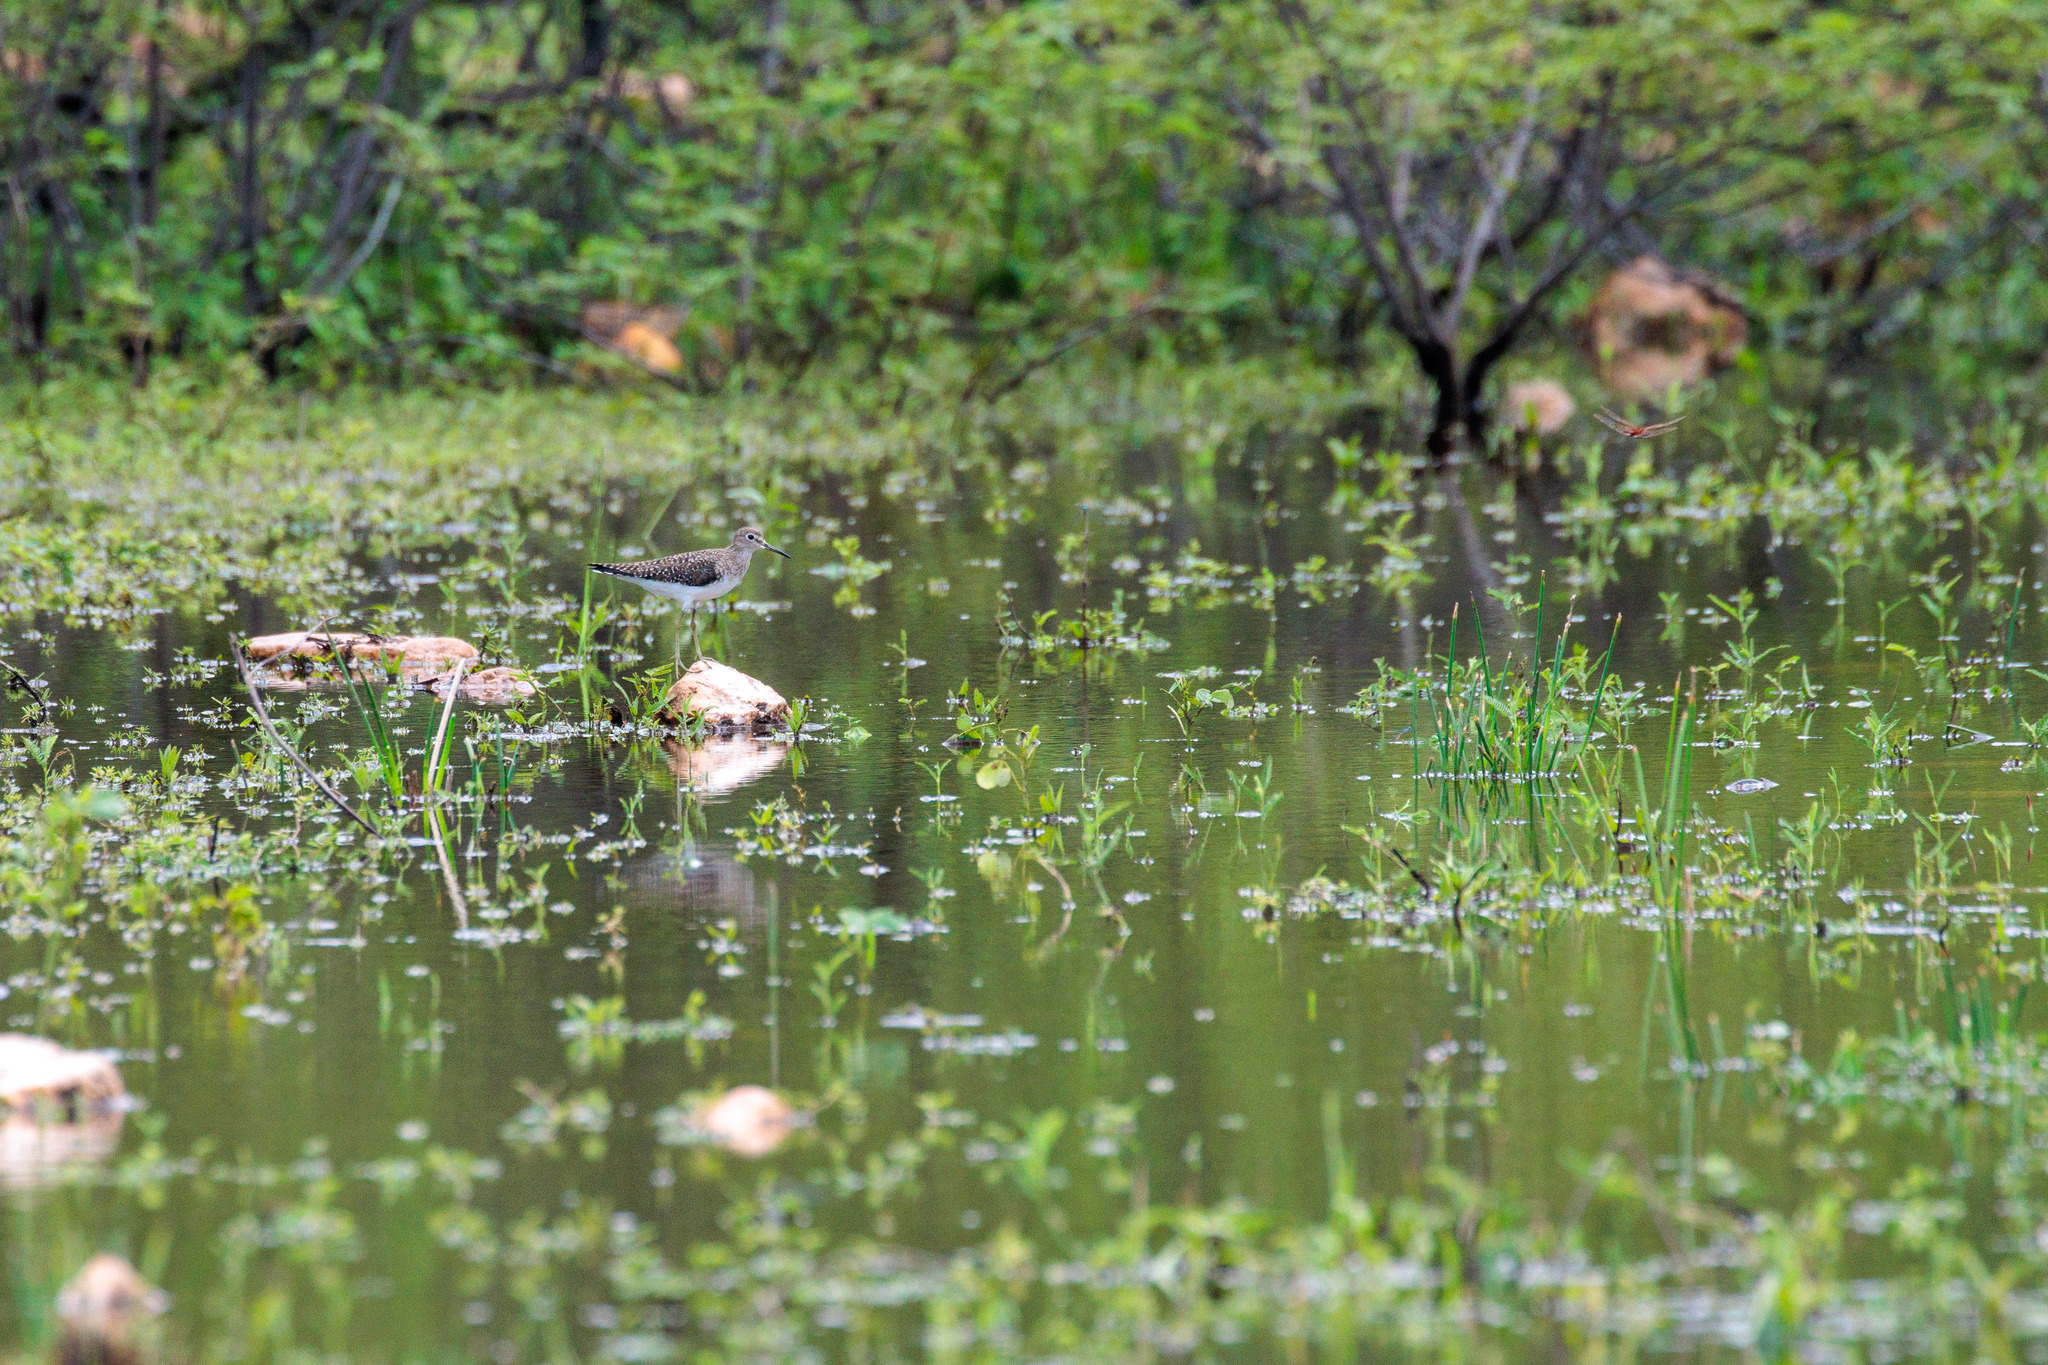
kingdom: Animalia
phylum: Chordata
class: Aves
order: Charadriiformes
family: Scolopacidae
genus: Tringa
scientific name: Tringa solitaria
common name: Solitary sandpiper
